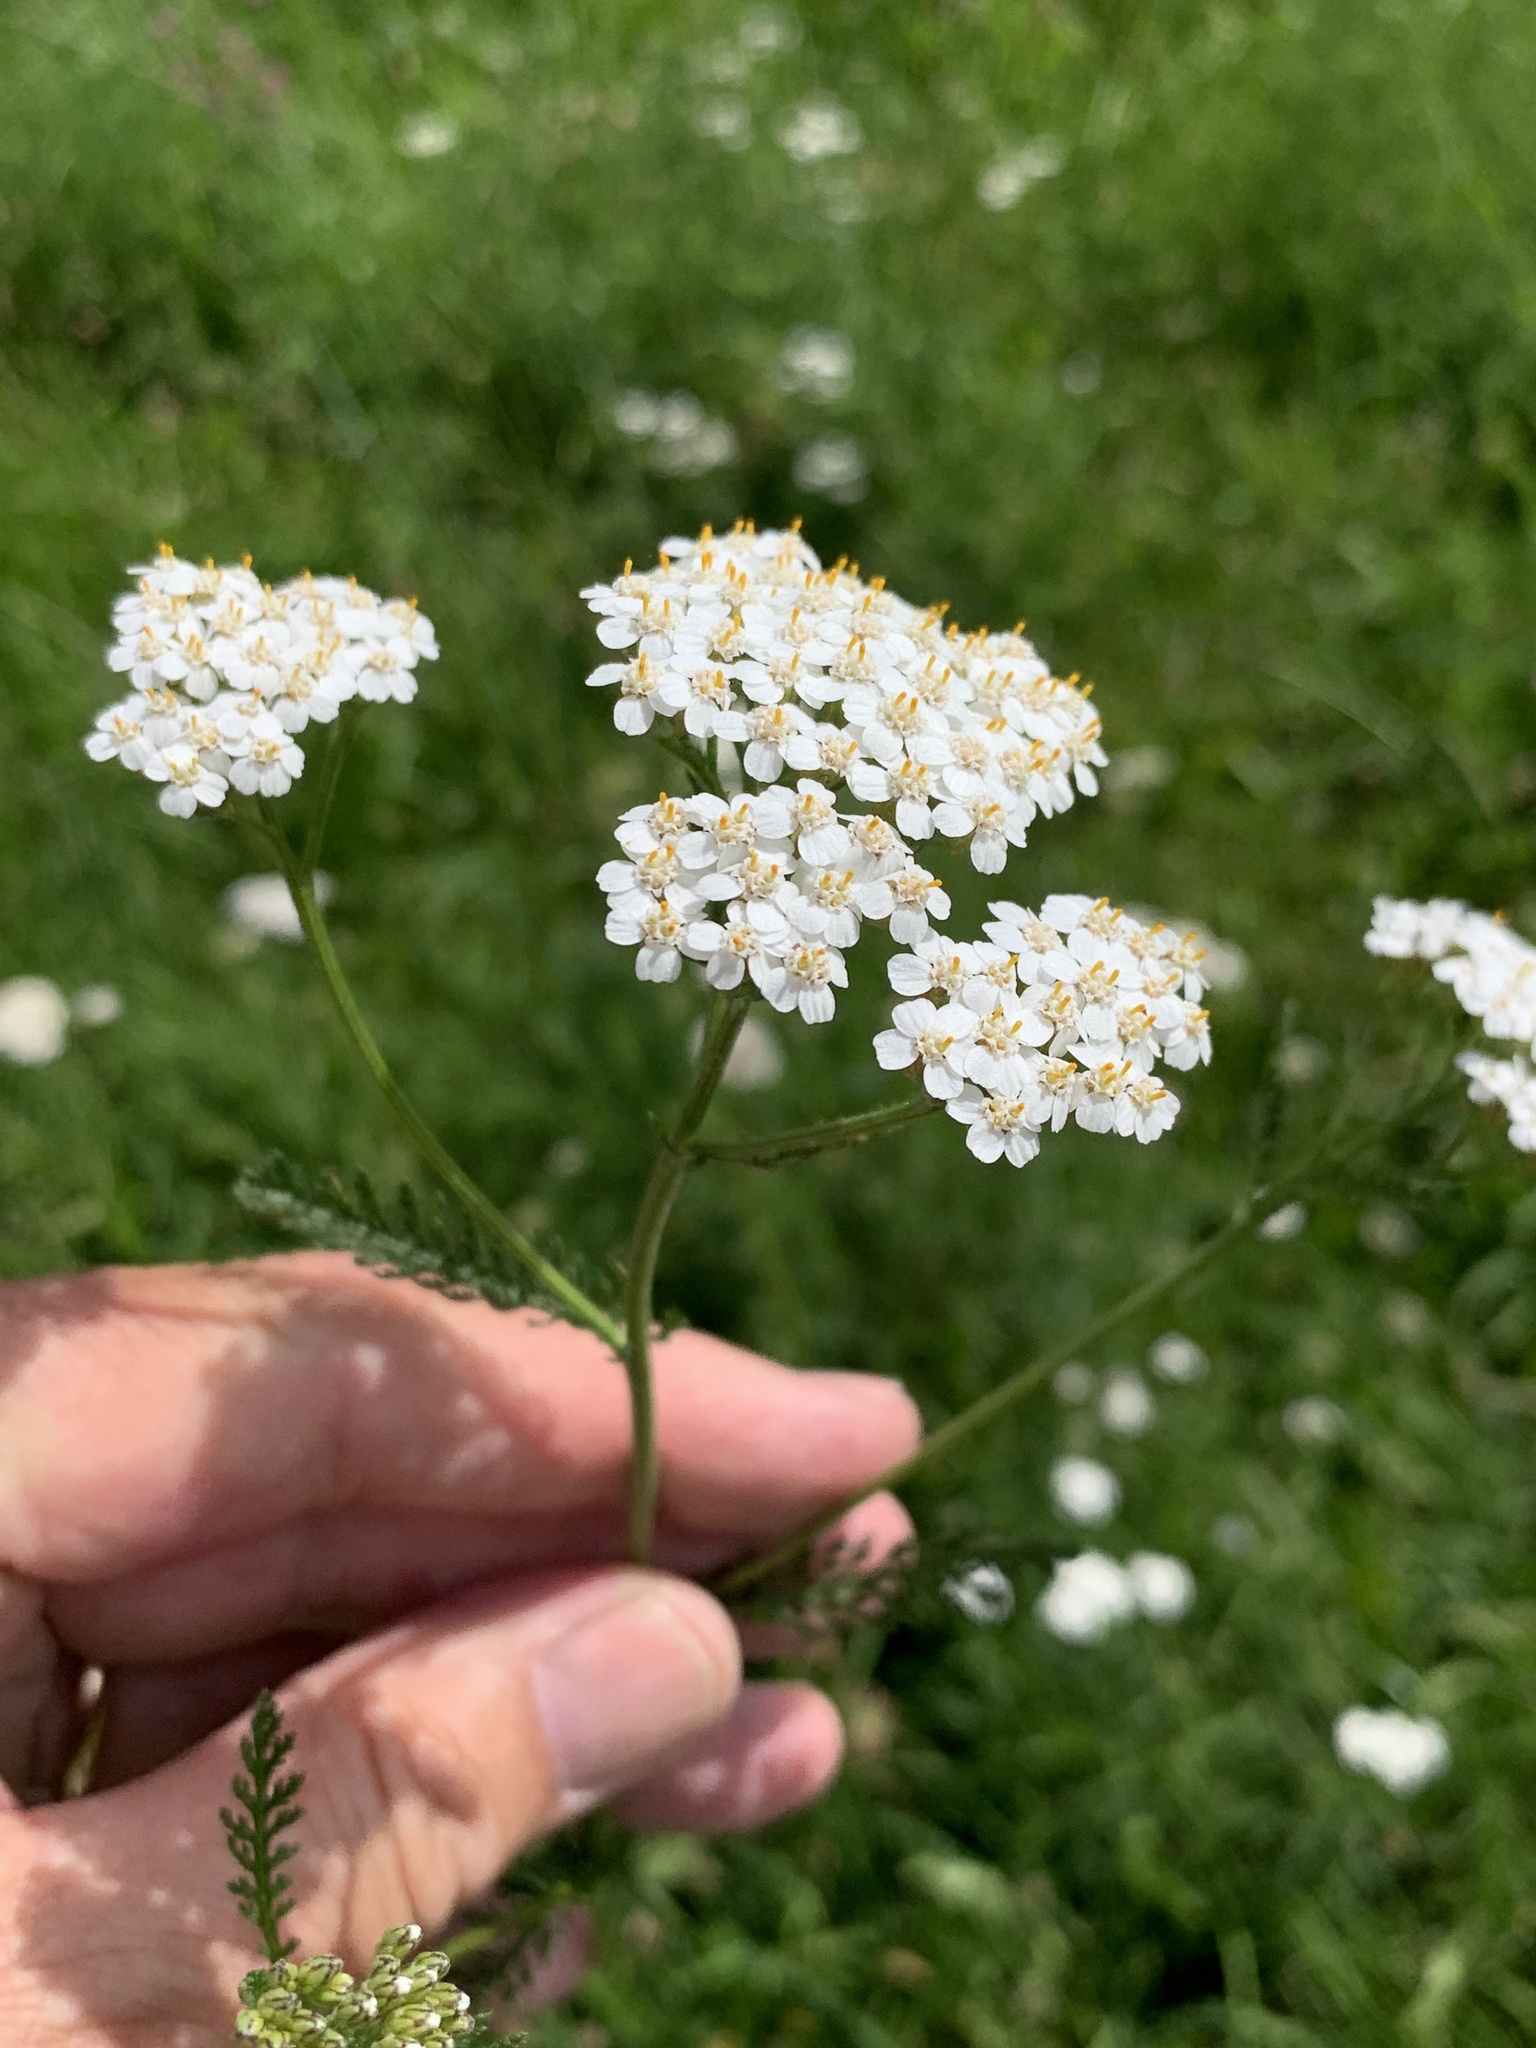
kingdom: Plantae
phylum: Tracheophyta
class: Magnoliopsida
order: Asterales
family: Asteraceae
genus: Achillea
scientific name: Achillea millefolium
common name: Yarrow
